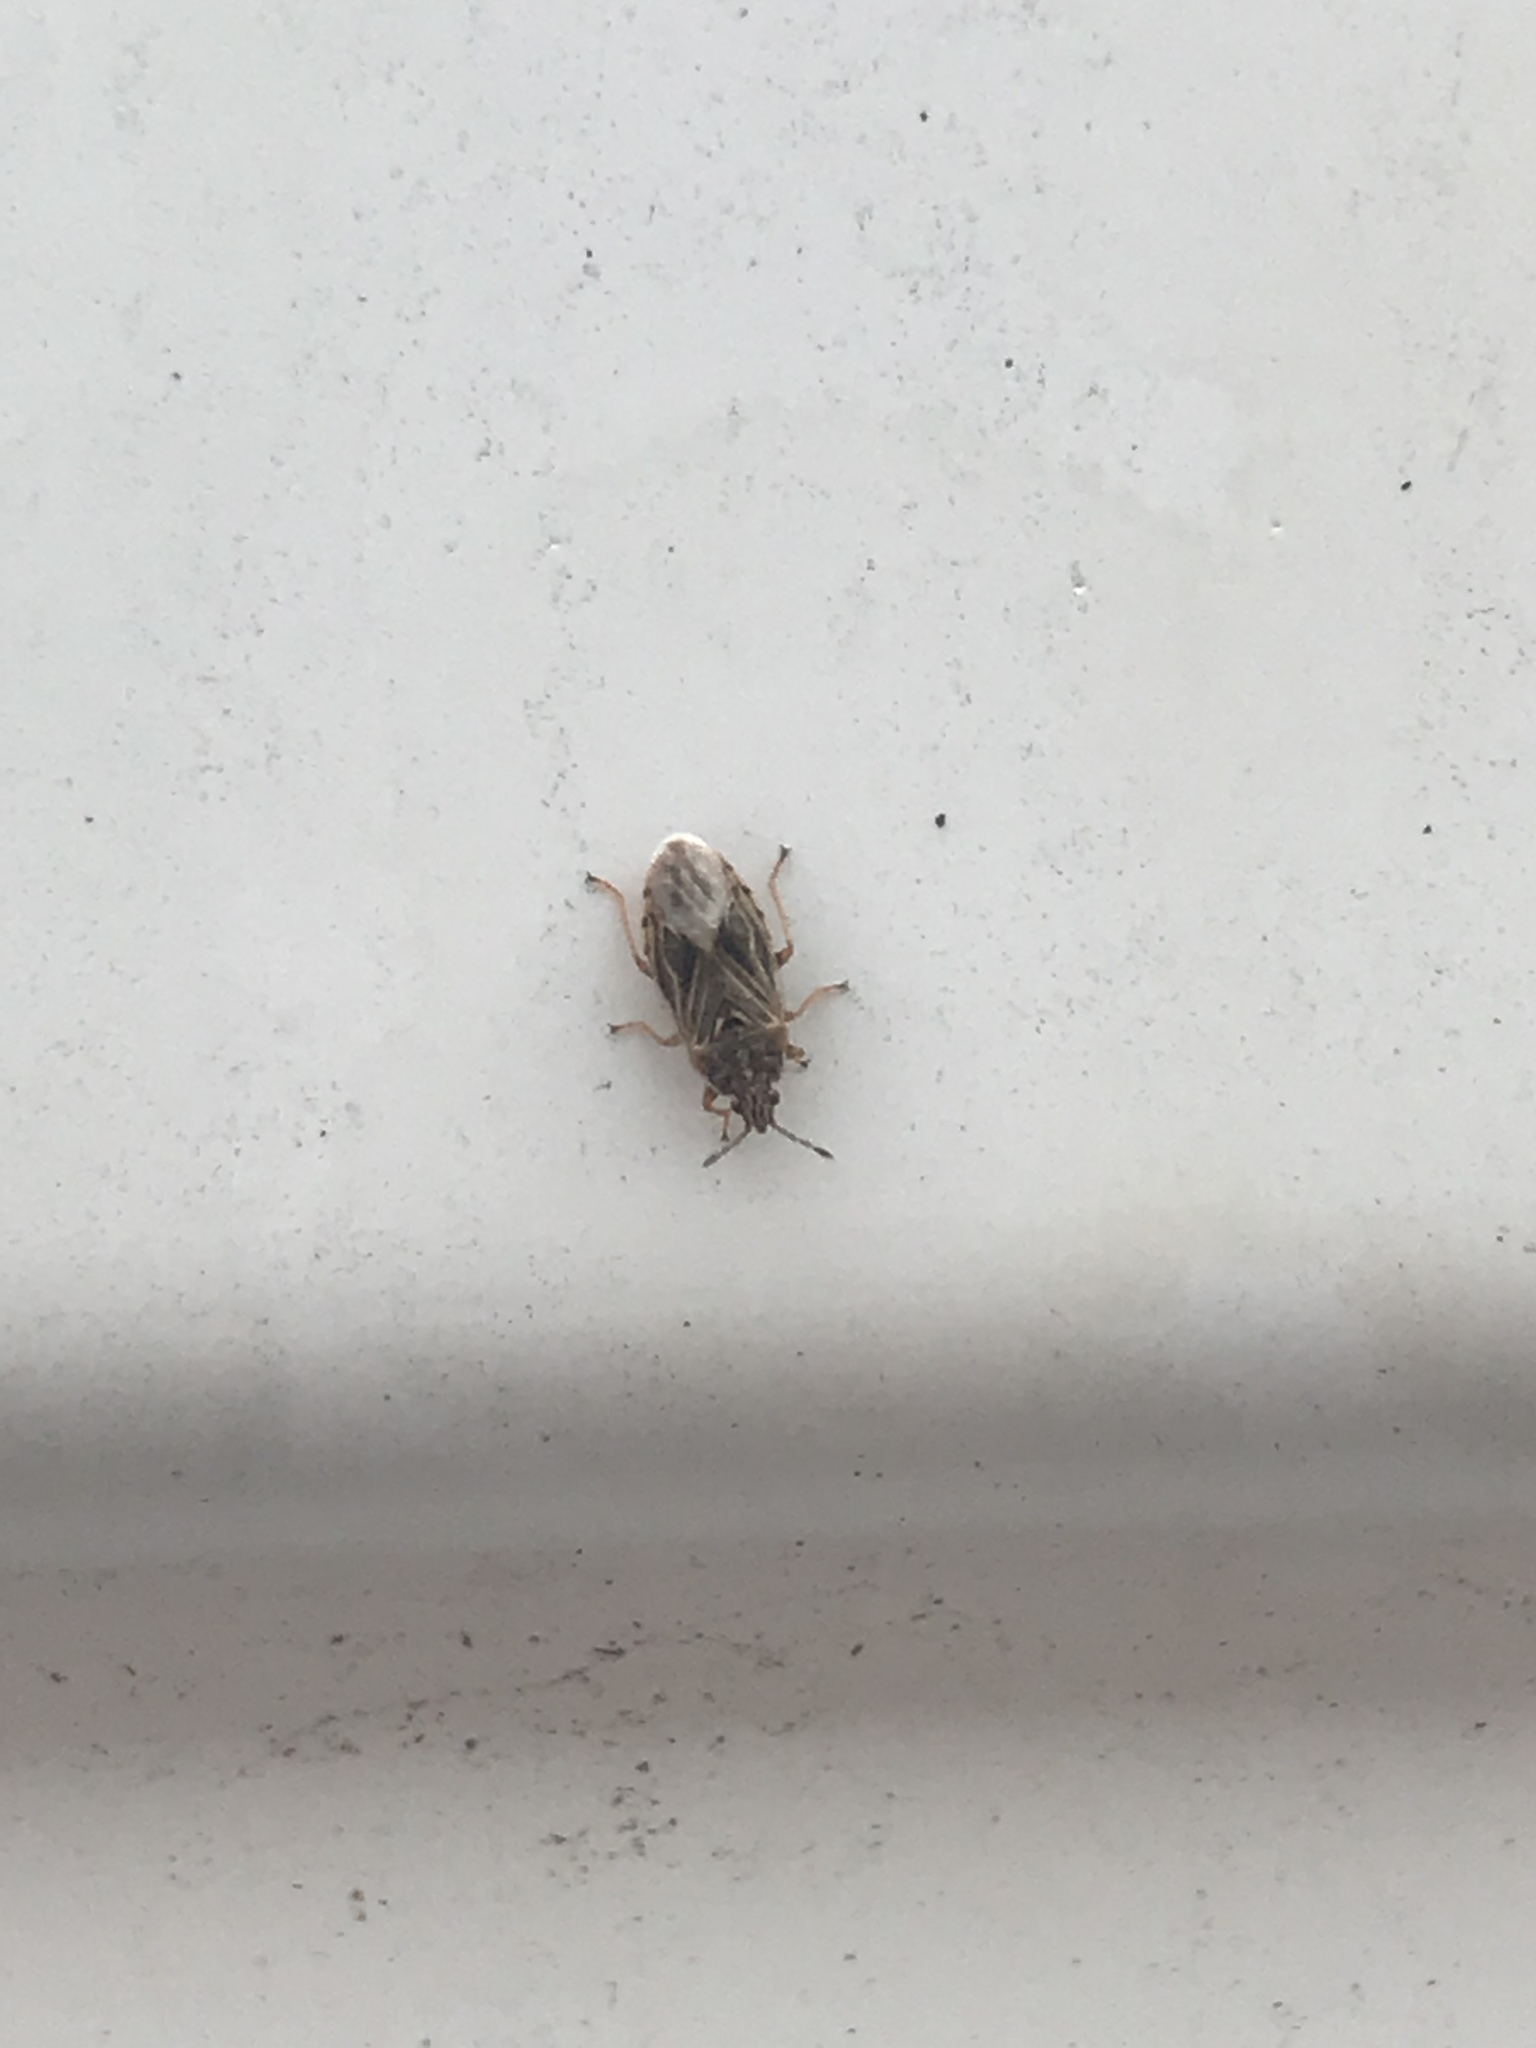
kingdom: Animalia
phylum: Arthropoda
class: Insecta
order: Hemiptera
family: Artheneidae
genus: Chilacis
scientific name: Chilacis typhae
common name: Cattail bug
